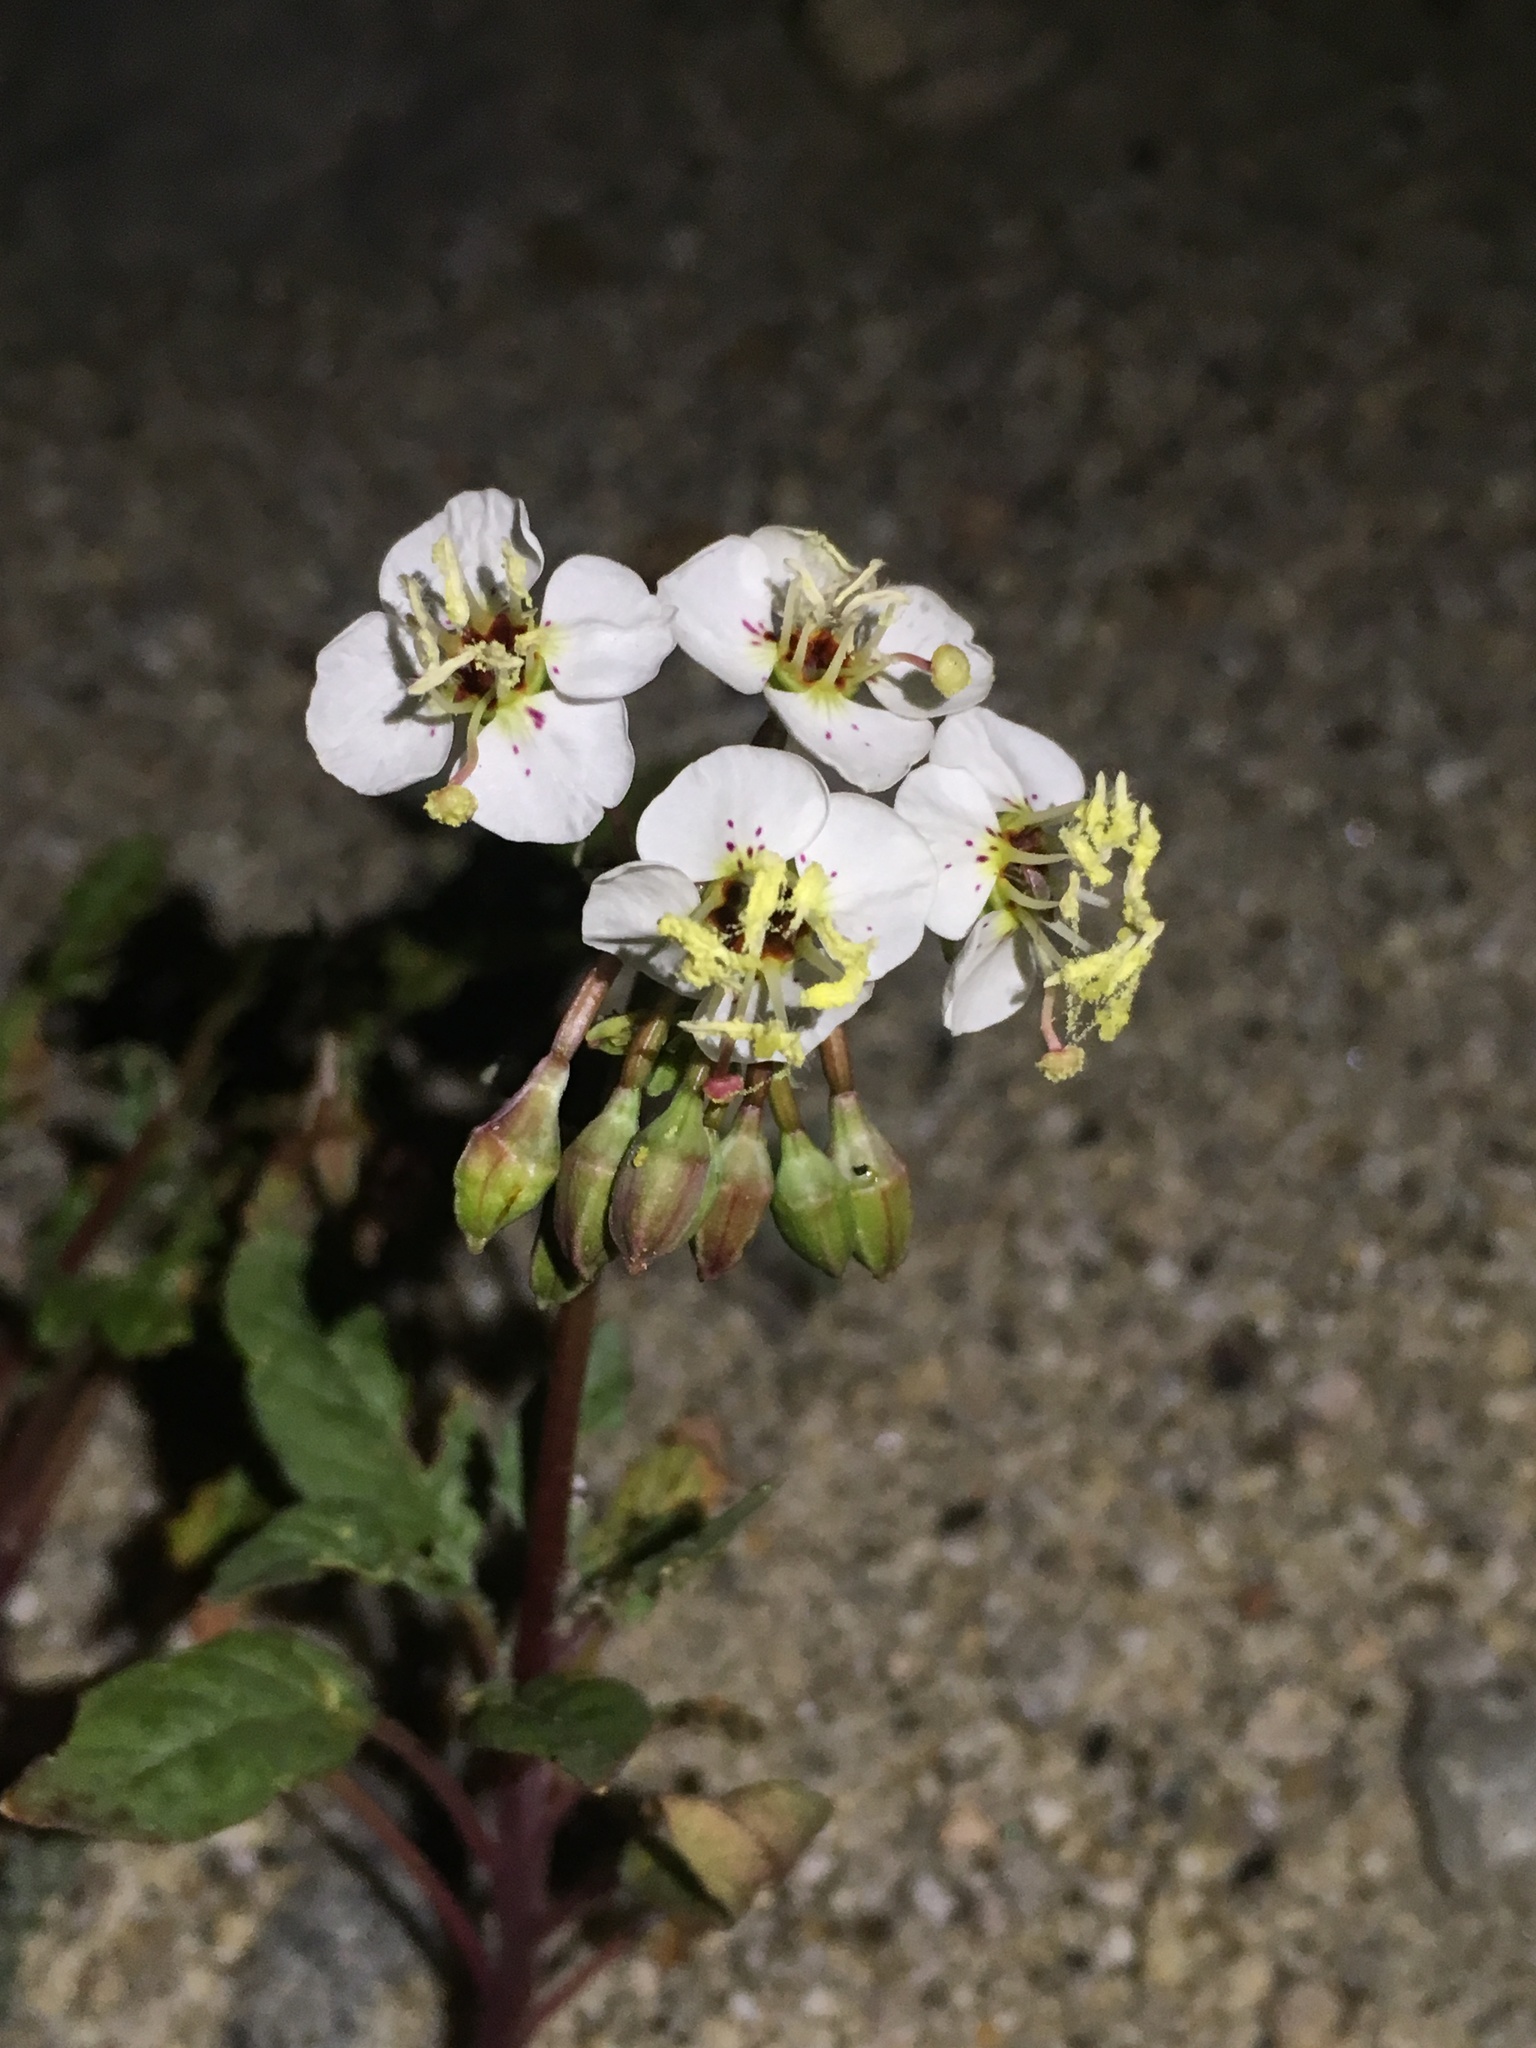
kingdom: Plantae
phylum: Tracheophyta
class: Magnoliopsida
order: Myrtales
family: Onagraceae
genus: Chylismia
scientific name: Chylismia claviformis
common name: Browneyes
